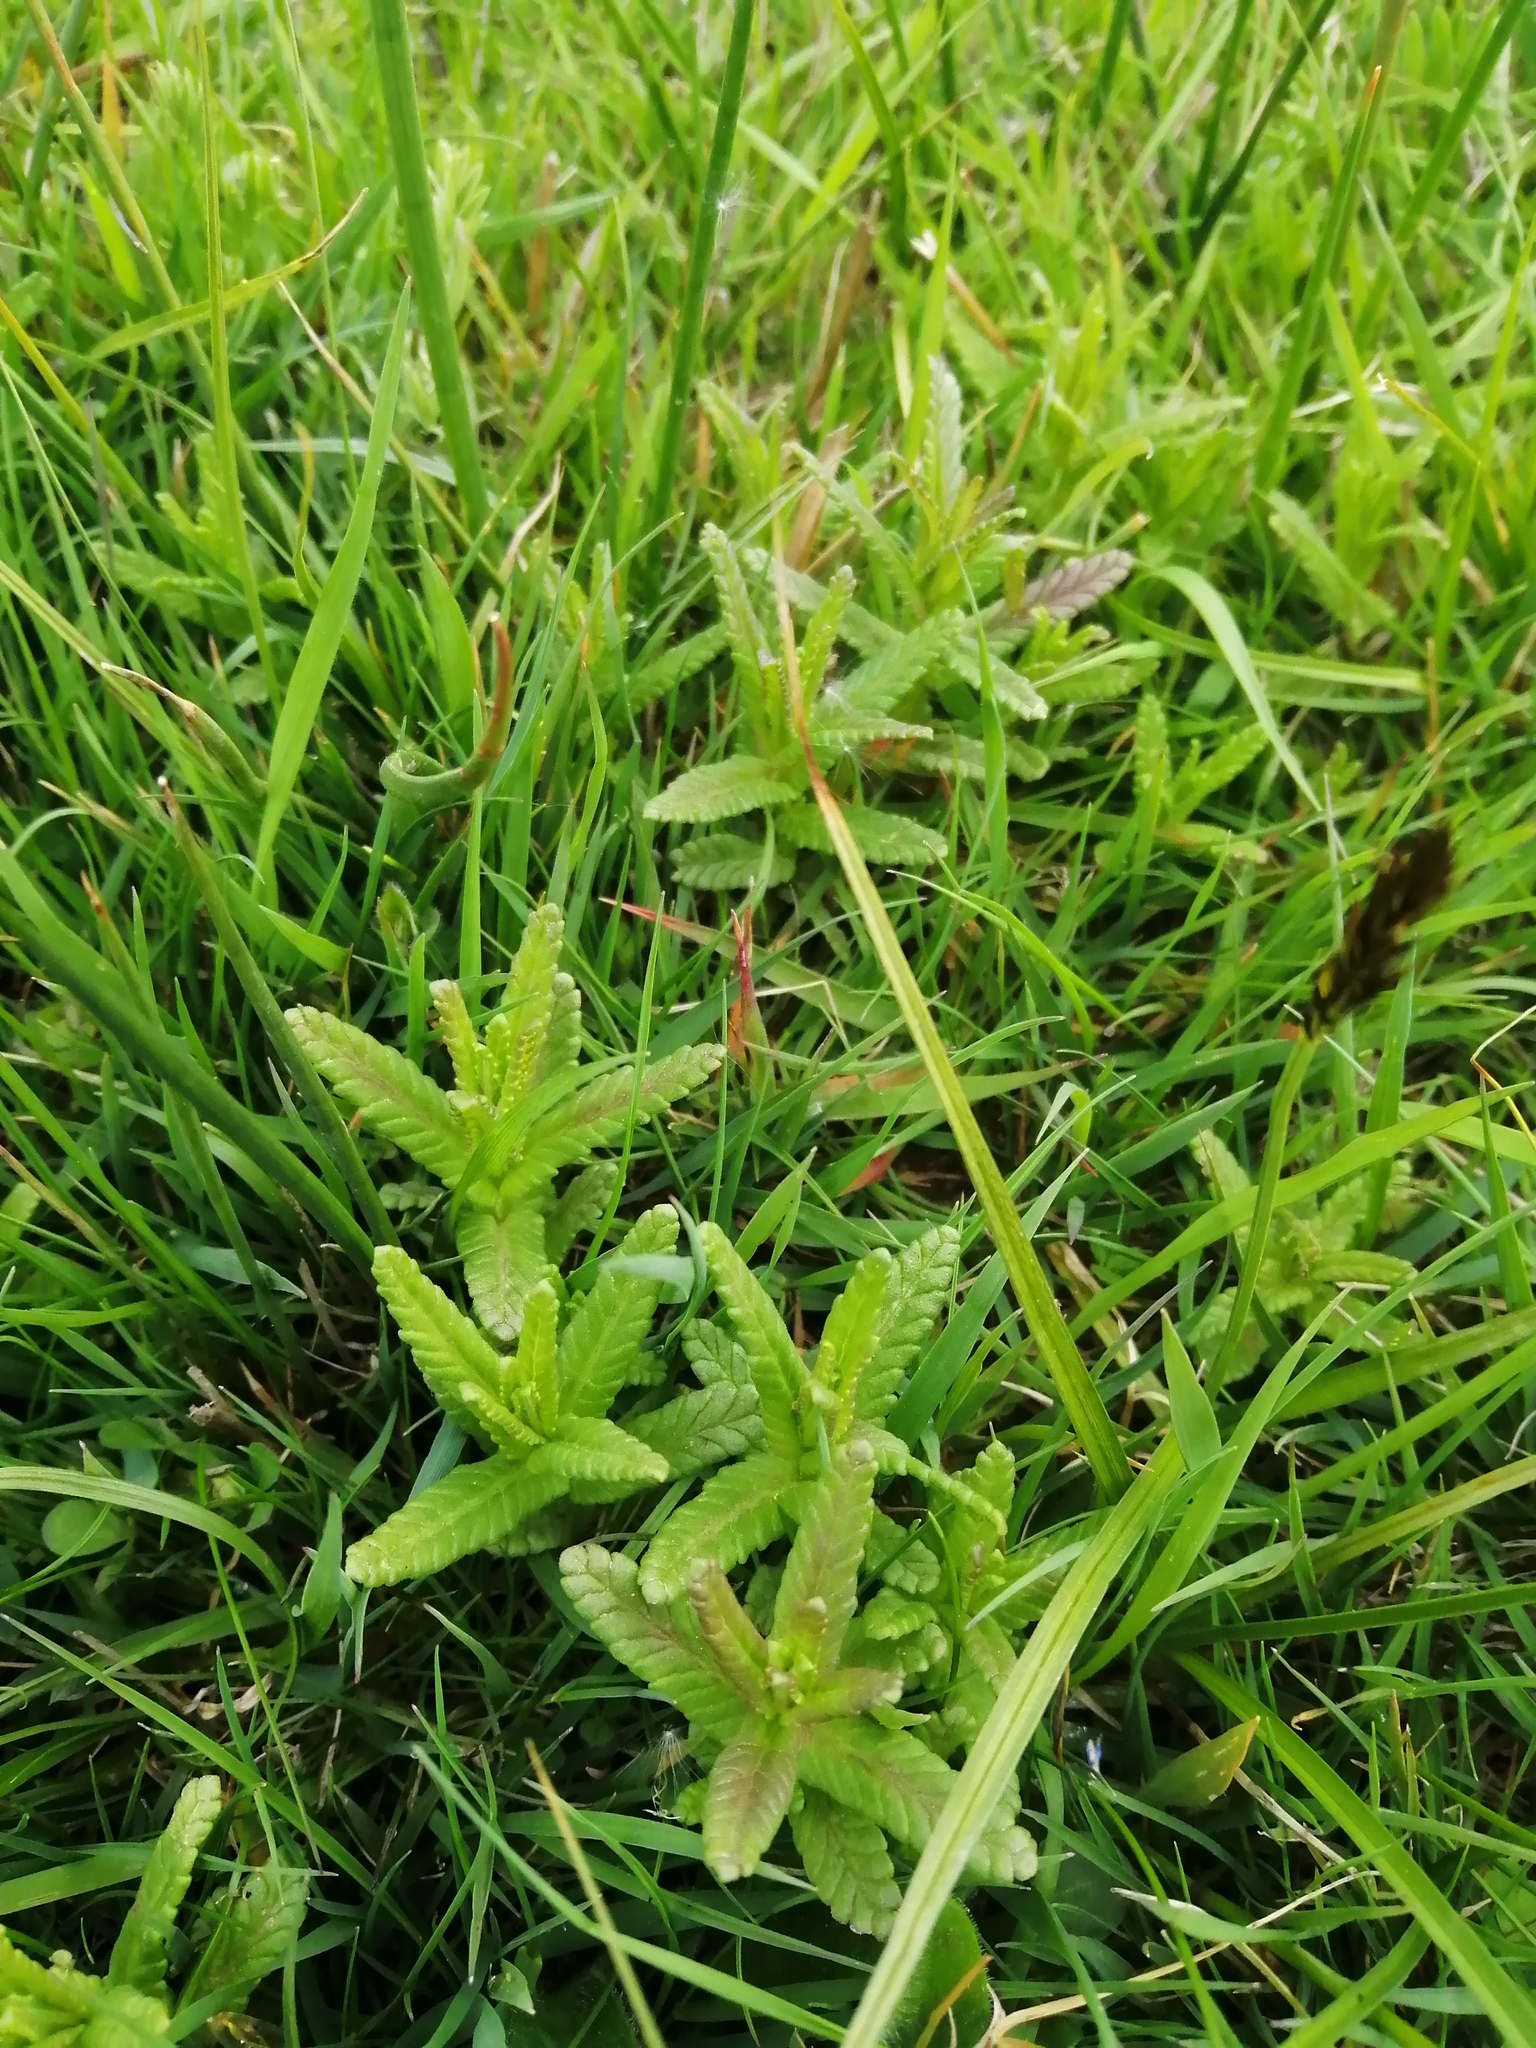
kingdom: Plantae
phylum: Tracheophyta
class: Magnoliopsida
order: Lamiales
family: Orobanchaceae
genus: Rhinanthus
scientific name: Rhinanthus minor
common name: Yellow-rattle
